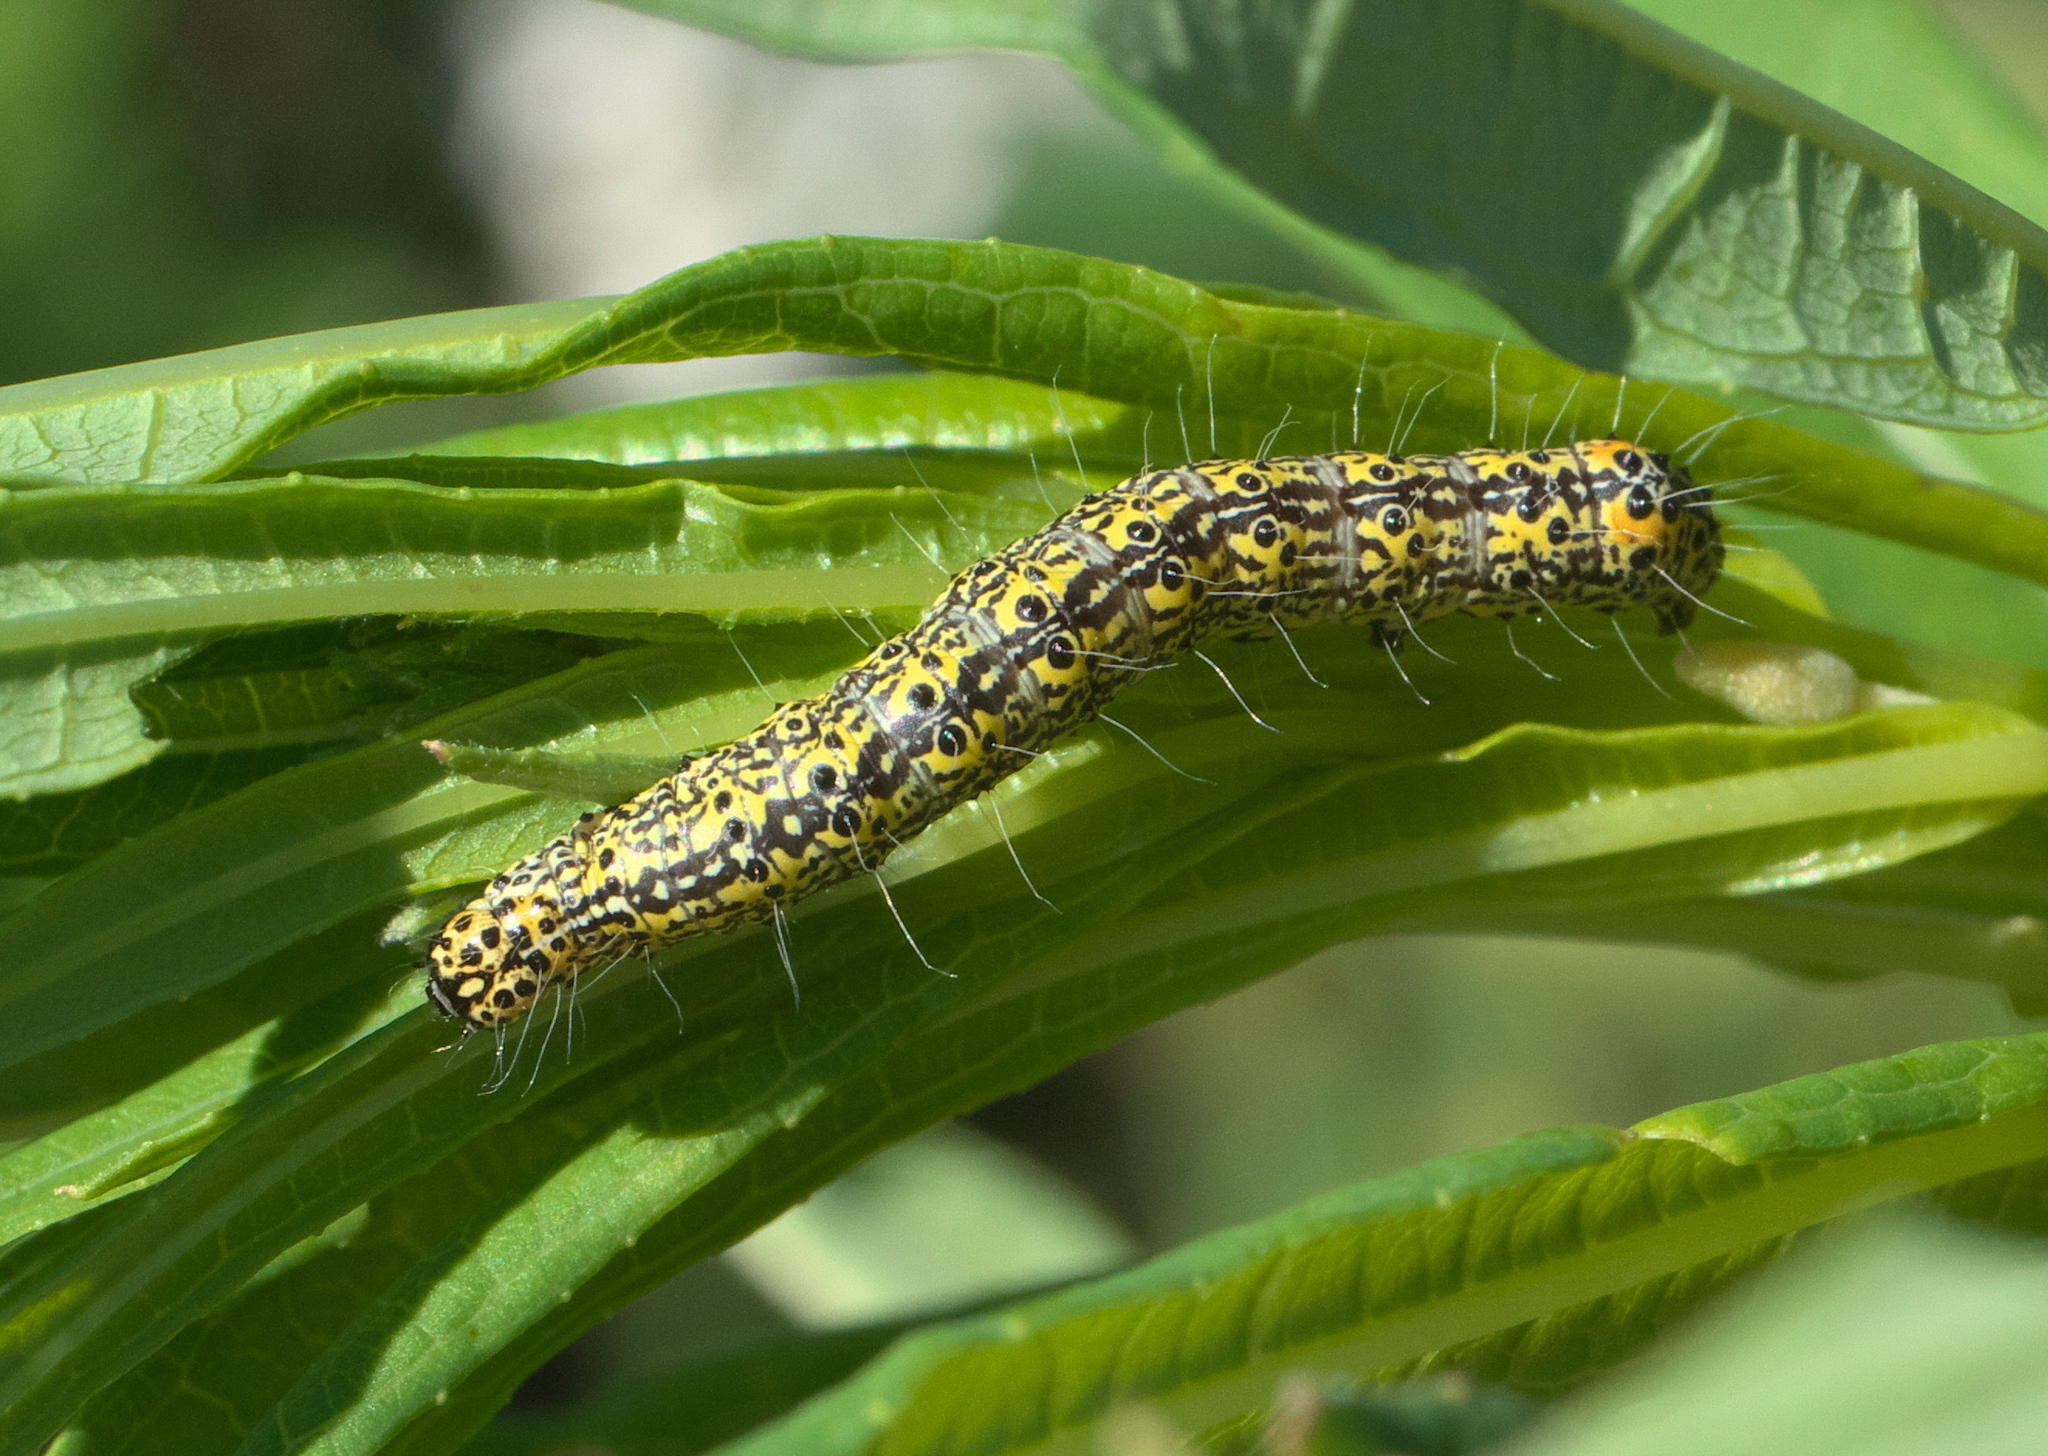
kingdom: Animalia
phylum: Arthropoda
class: Insecta
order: Lepidoptera
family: Noctuidae
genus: Alypia
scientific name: Alypia maccullochii
